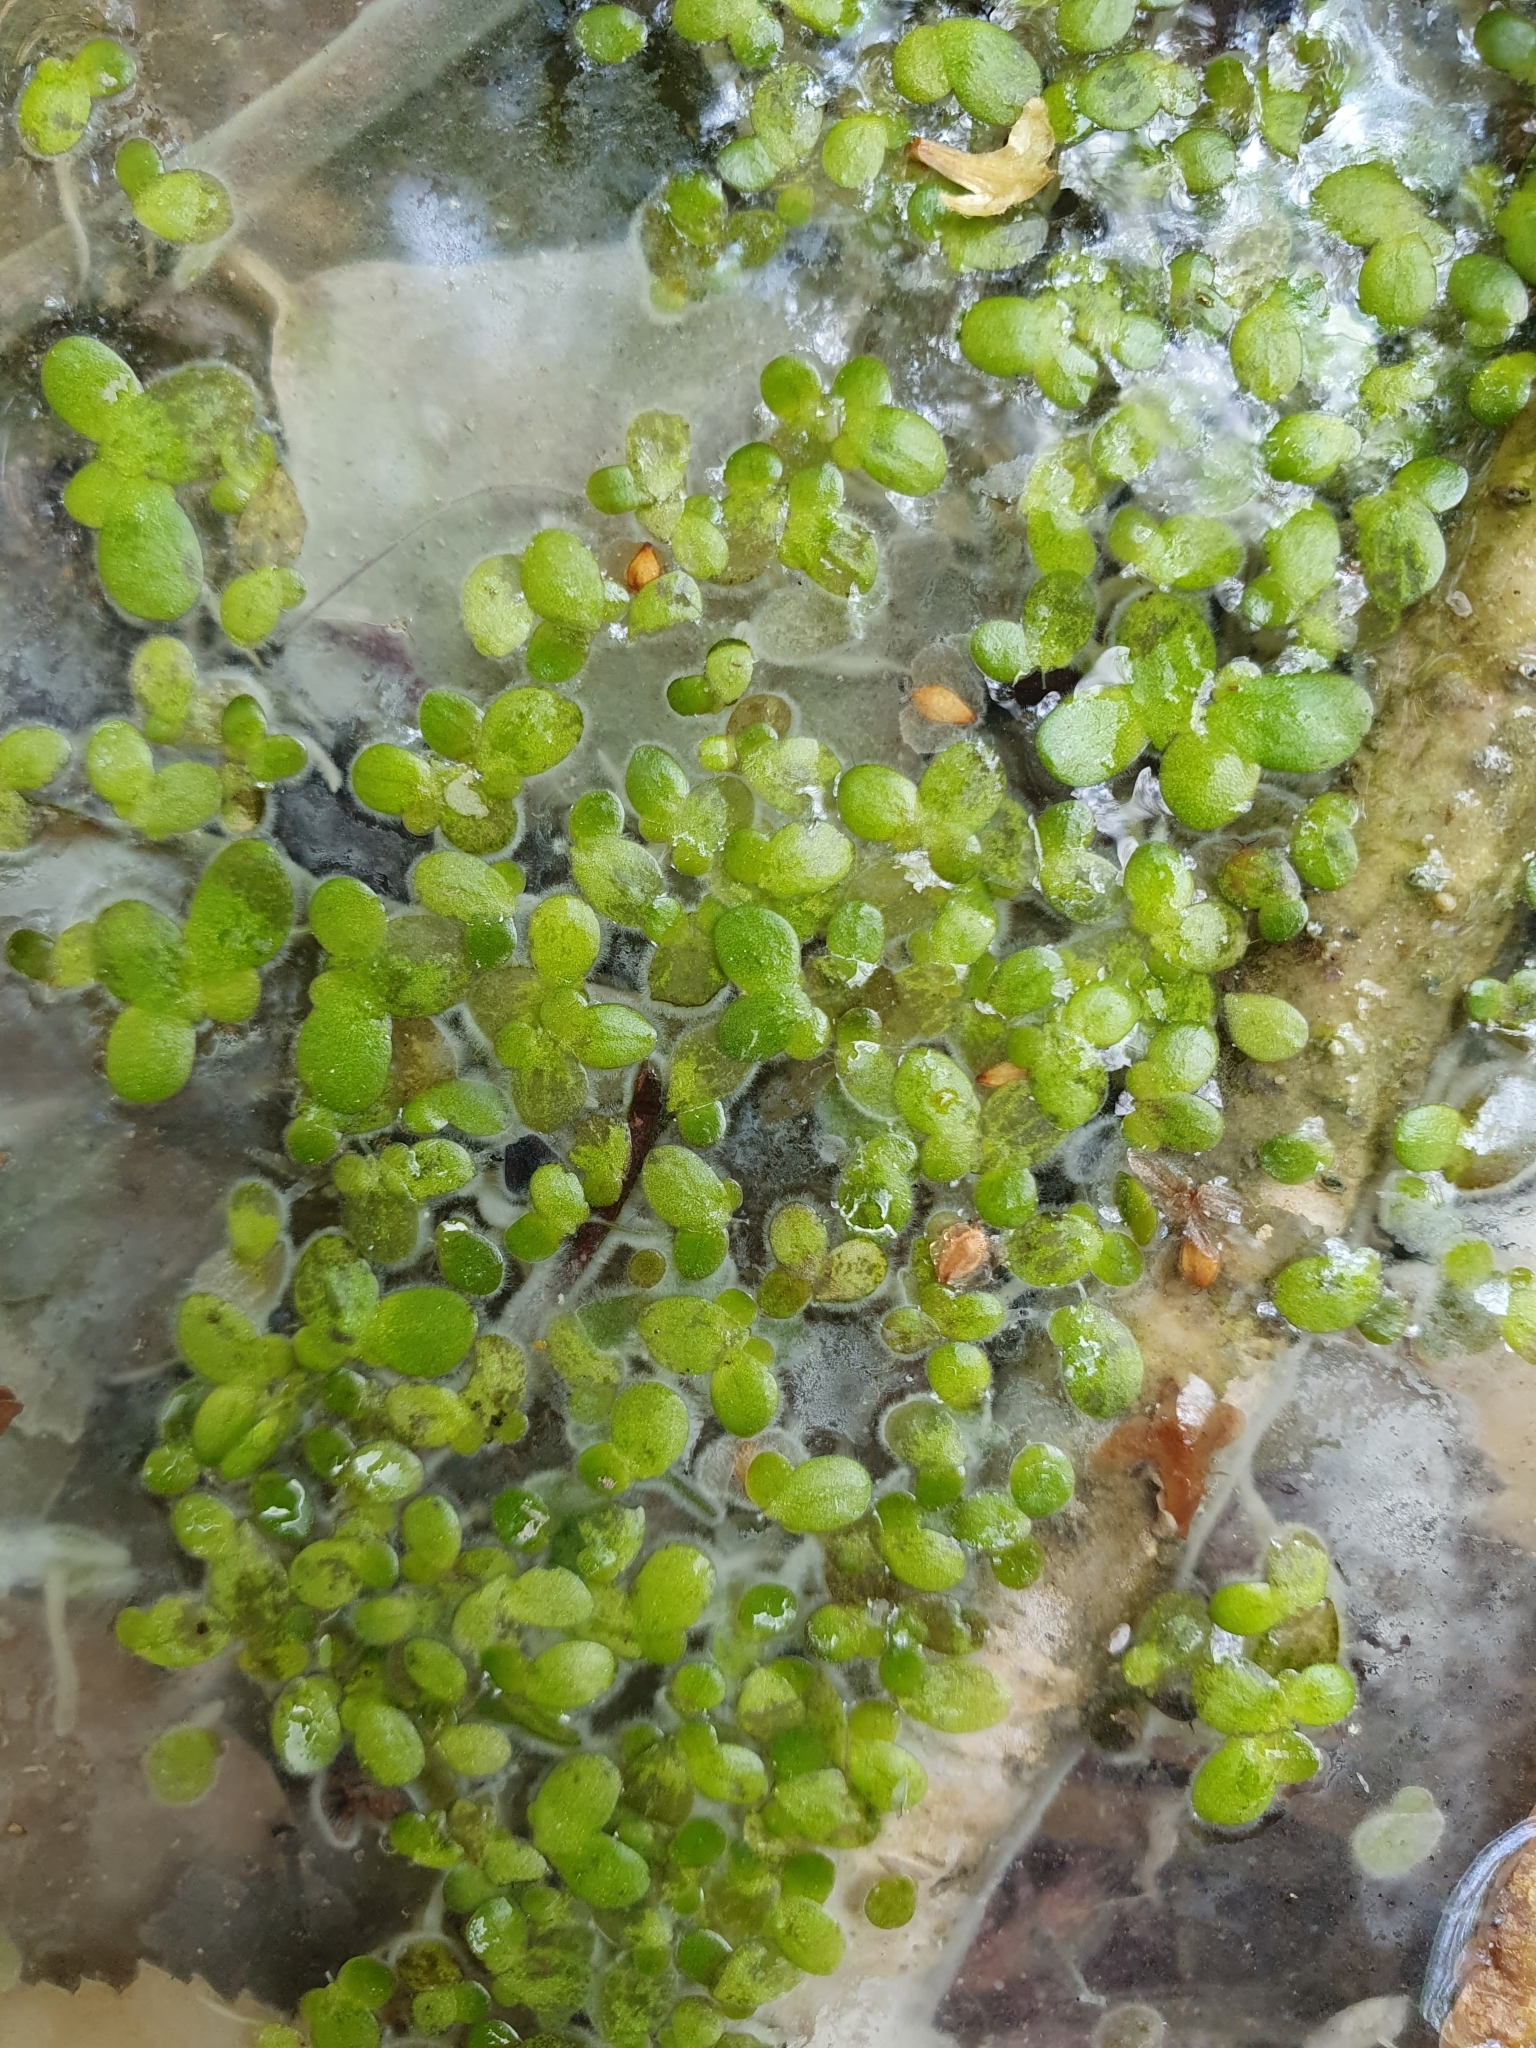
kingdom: Plantae
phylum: Tracheophyta
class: Liliopsida
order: Alismatales
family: Araceae
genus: Lemna
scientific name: Lemna minor
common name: Common duckweed
